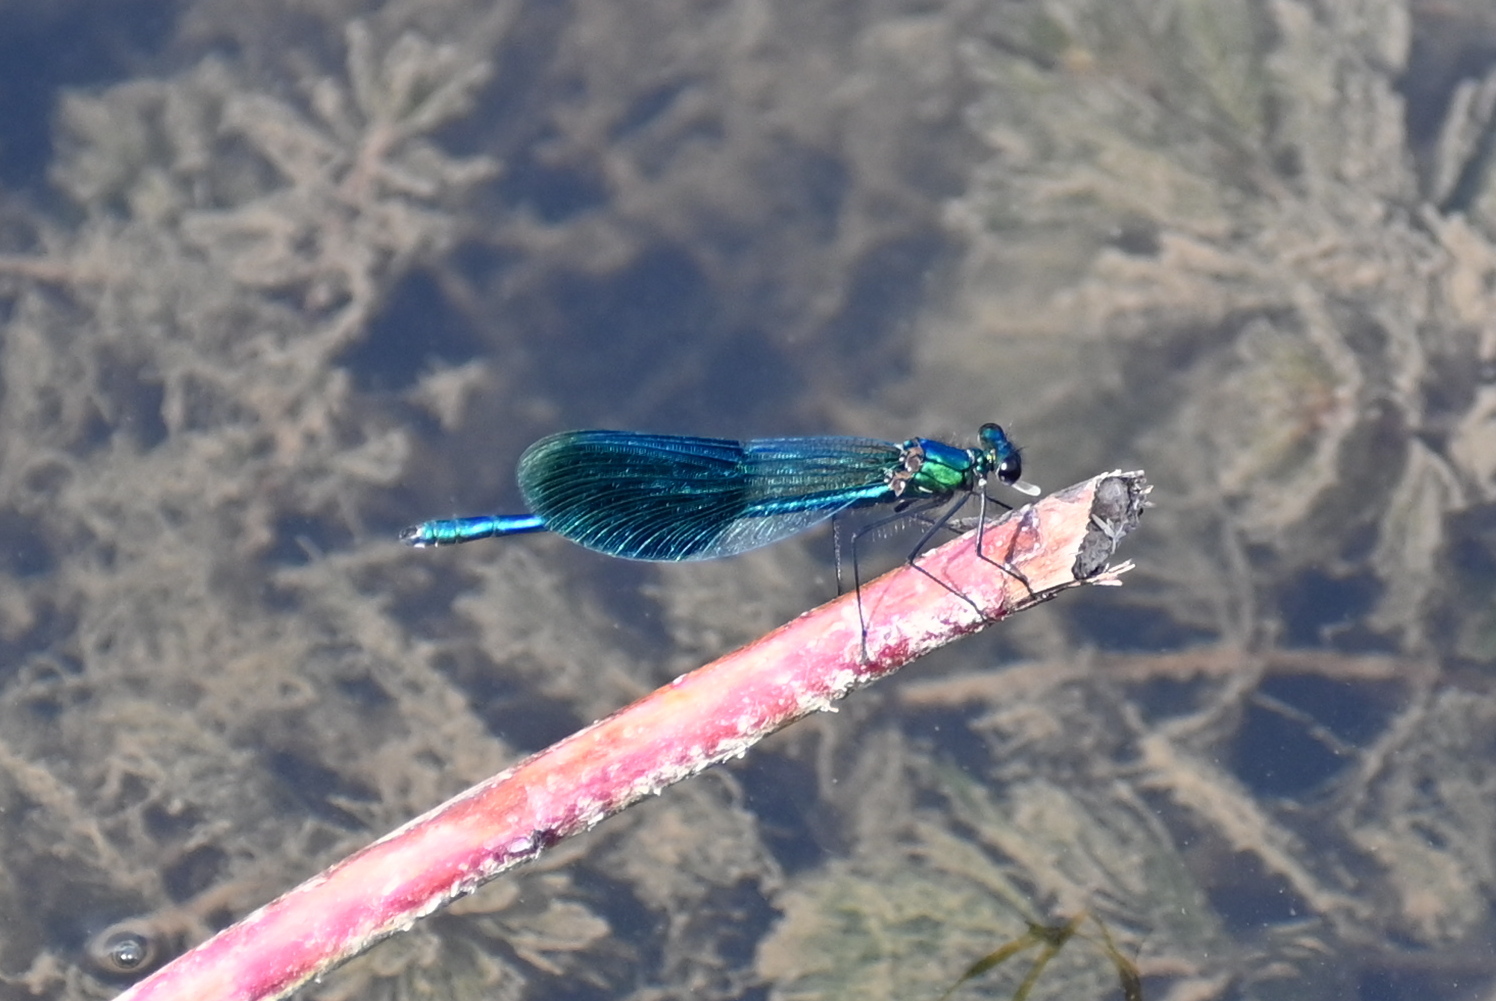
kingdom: Animalia
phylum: Arthropoda
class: Insecta
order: Odonata
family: Calopterygidae
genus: Calopteryx
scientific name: Calopteryx splendens
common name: Banded demoiselle
